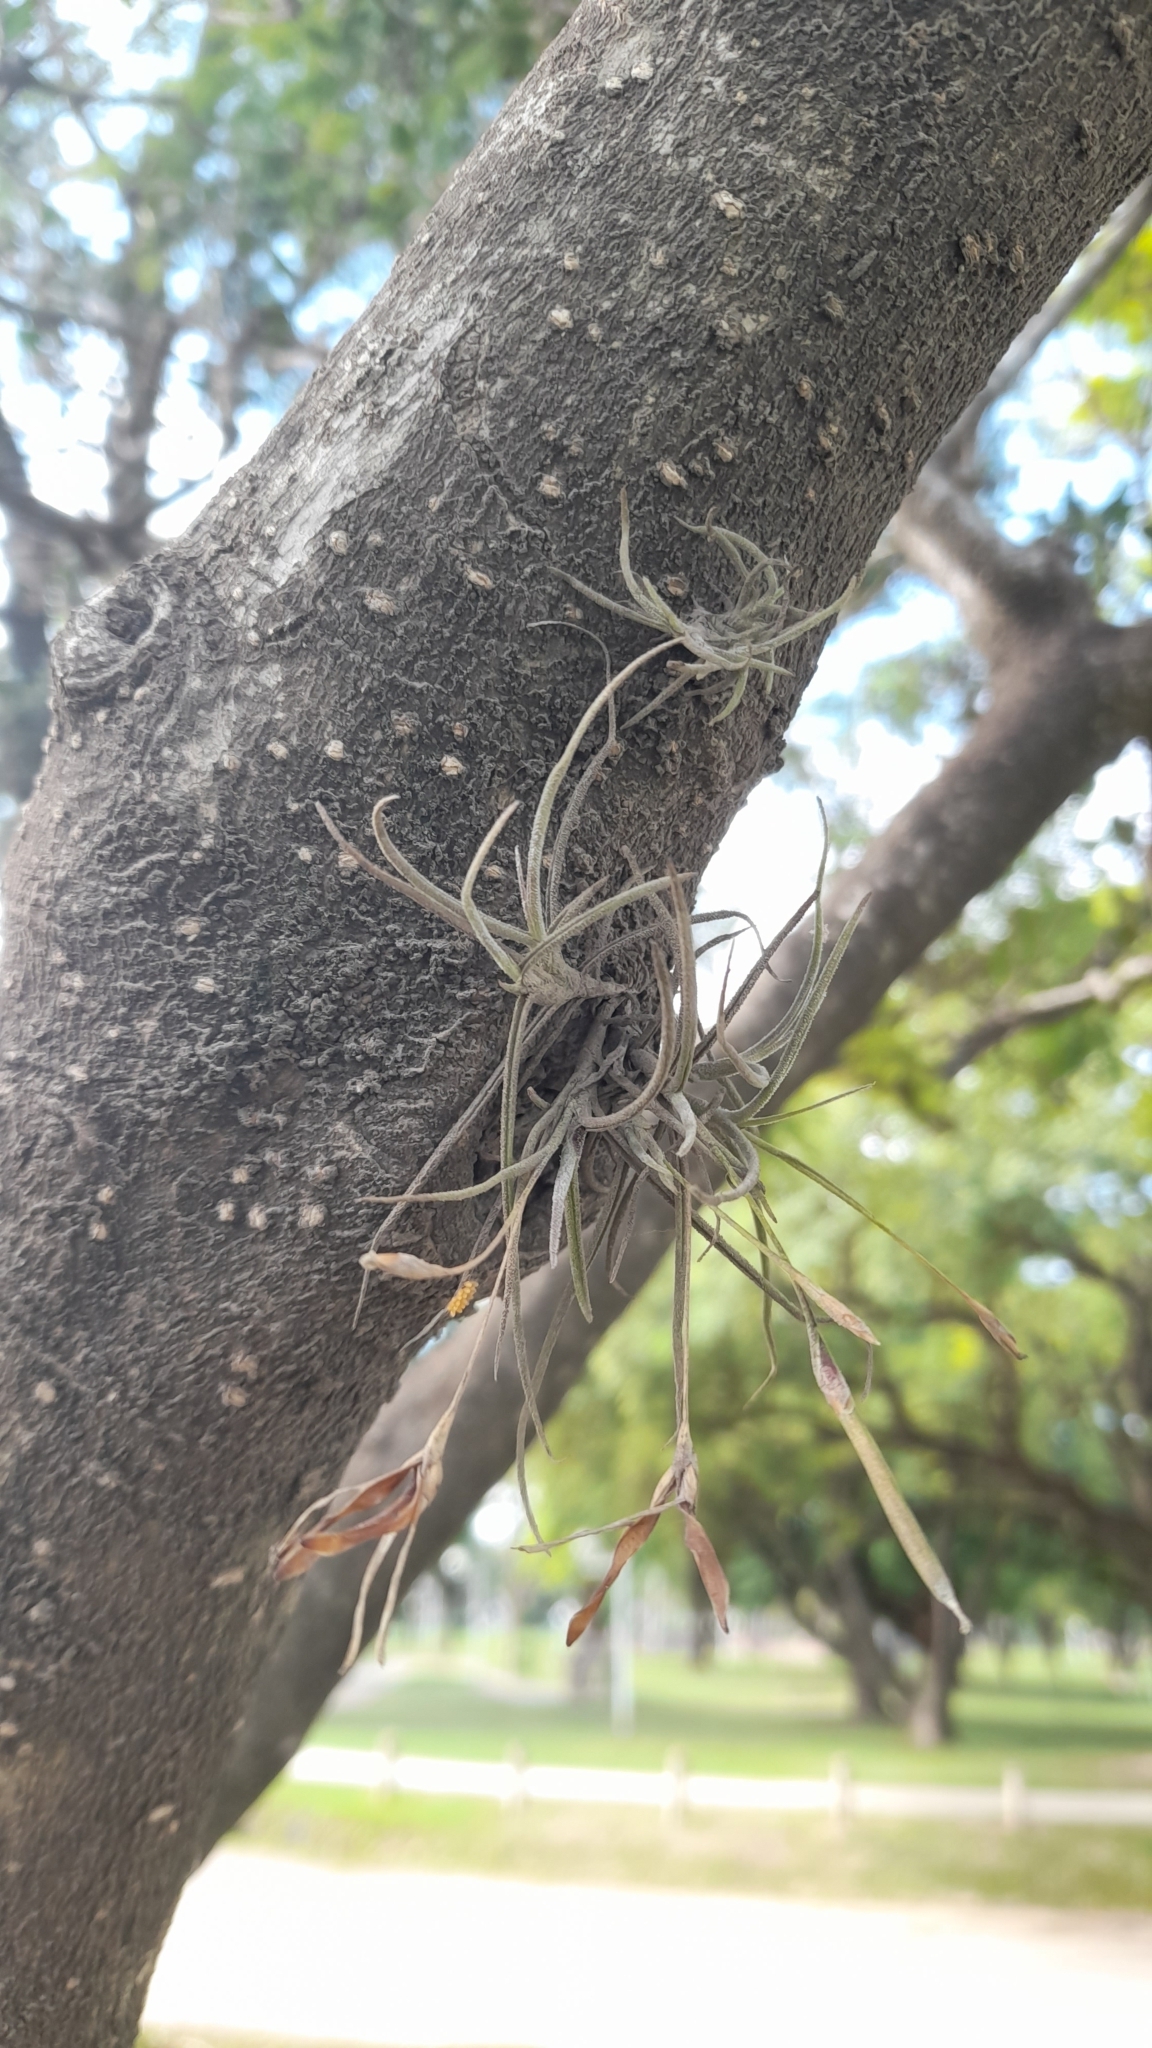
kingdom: Plantae
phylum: Tracheophyta
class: Liliopsida
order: Poales
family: Bromeliaceae
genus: Tillandsia
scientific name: Tillandsia recurvata
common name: Small ballmoss
